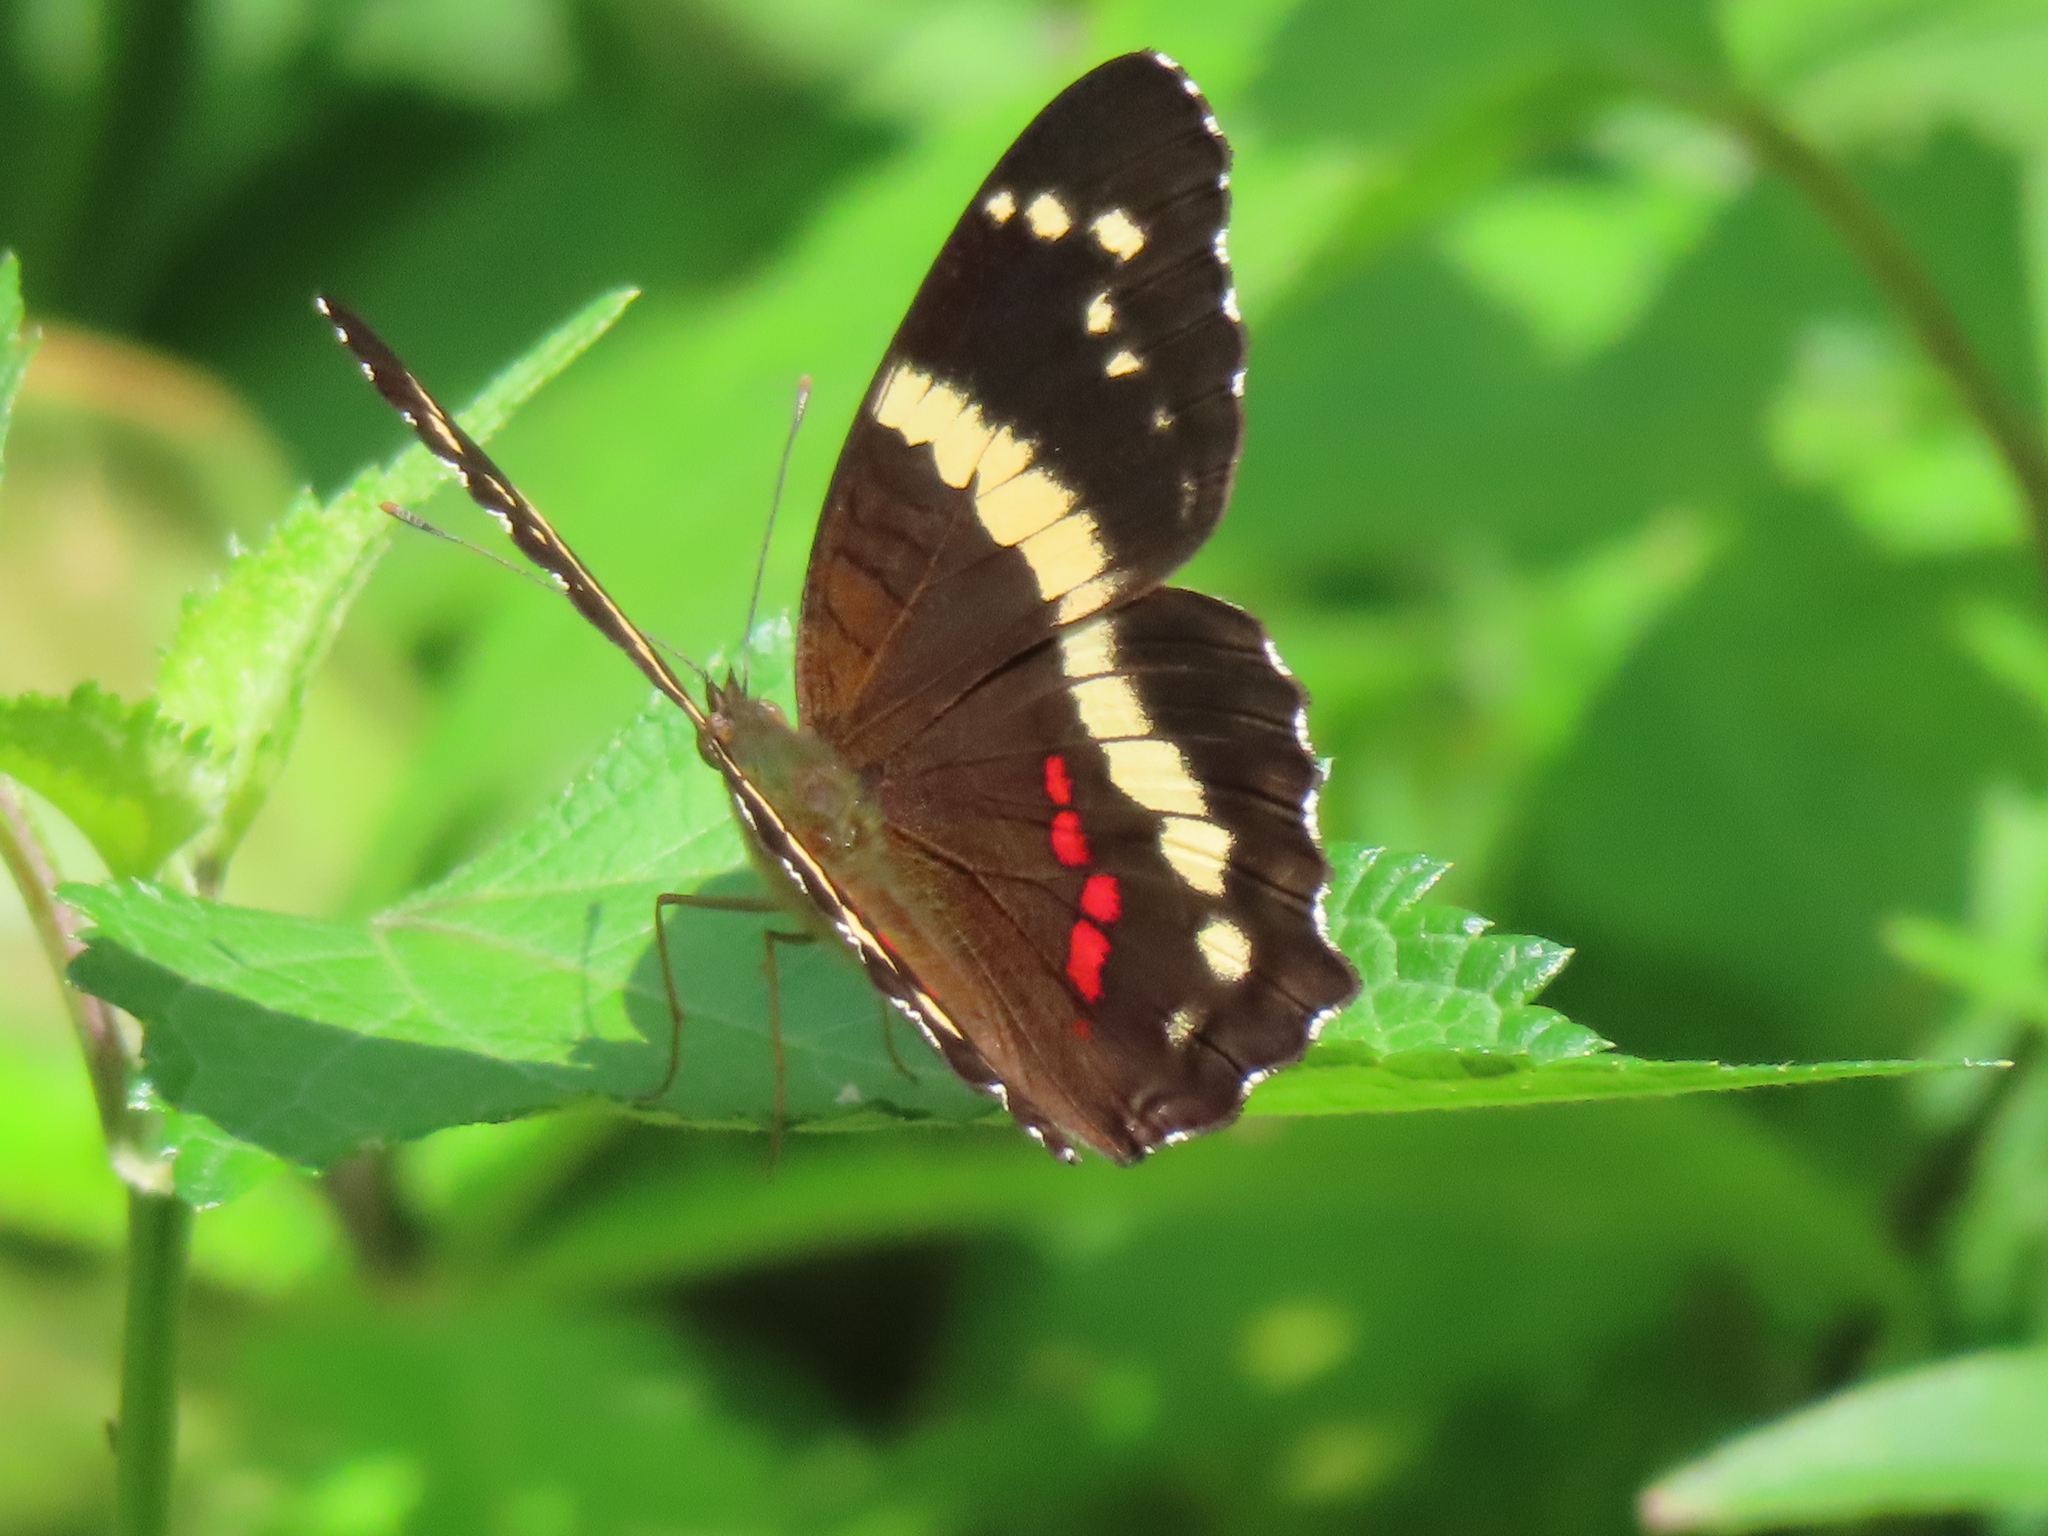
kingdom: Animalia
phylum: Arthropoda
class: Insecta
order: Lepidoptera
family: Nymphalidae
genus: Anartia
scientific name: Anartia fatima
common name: Banded peacock
